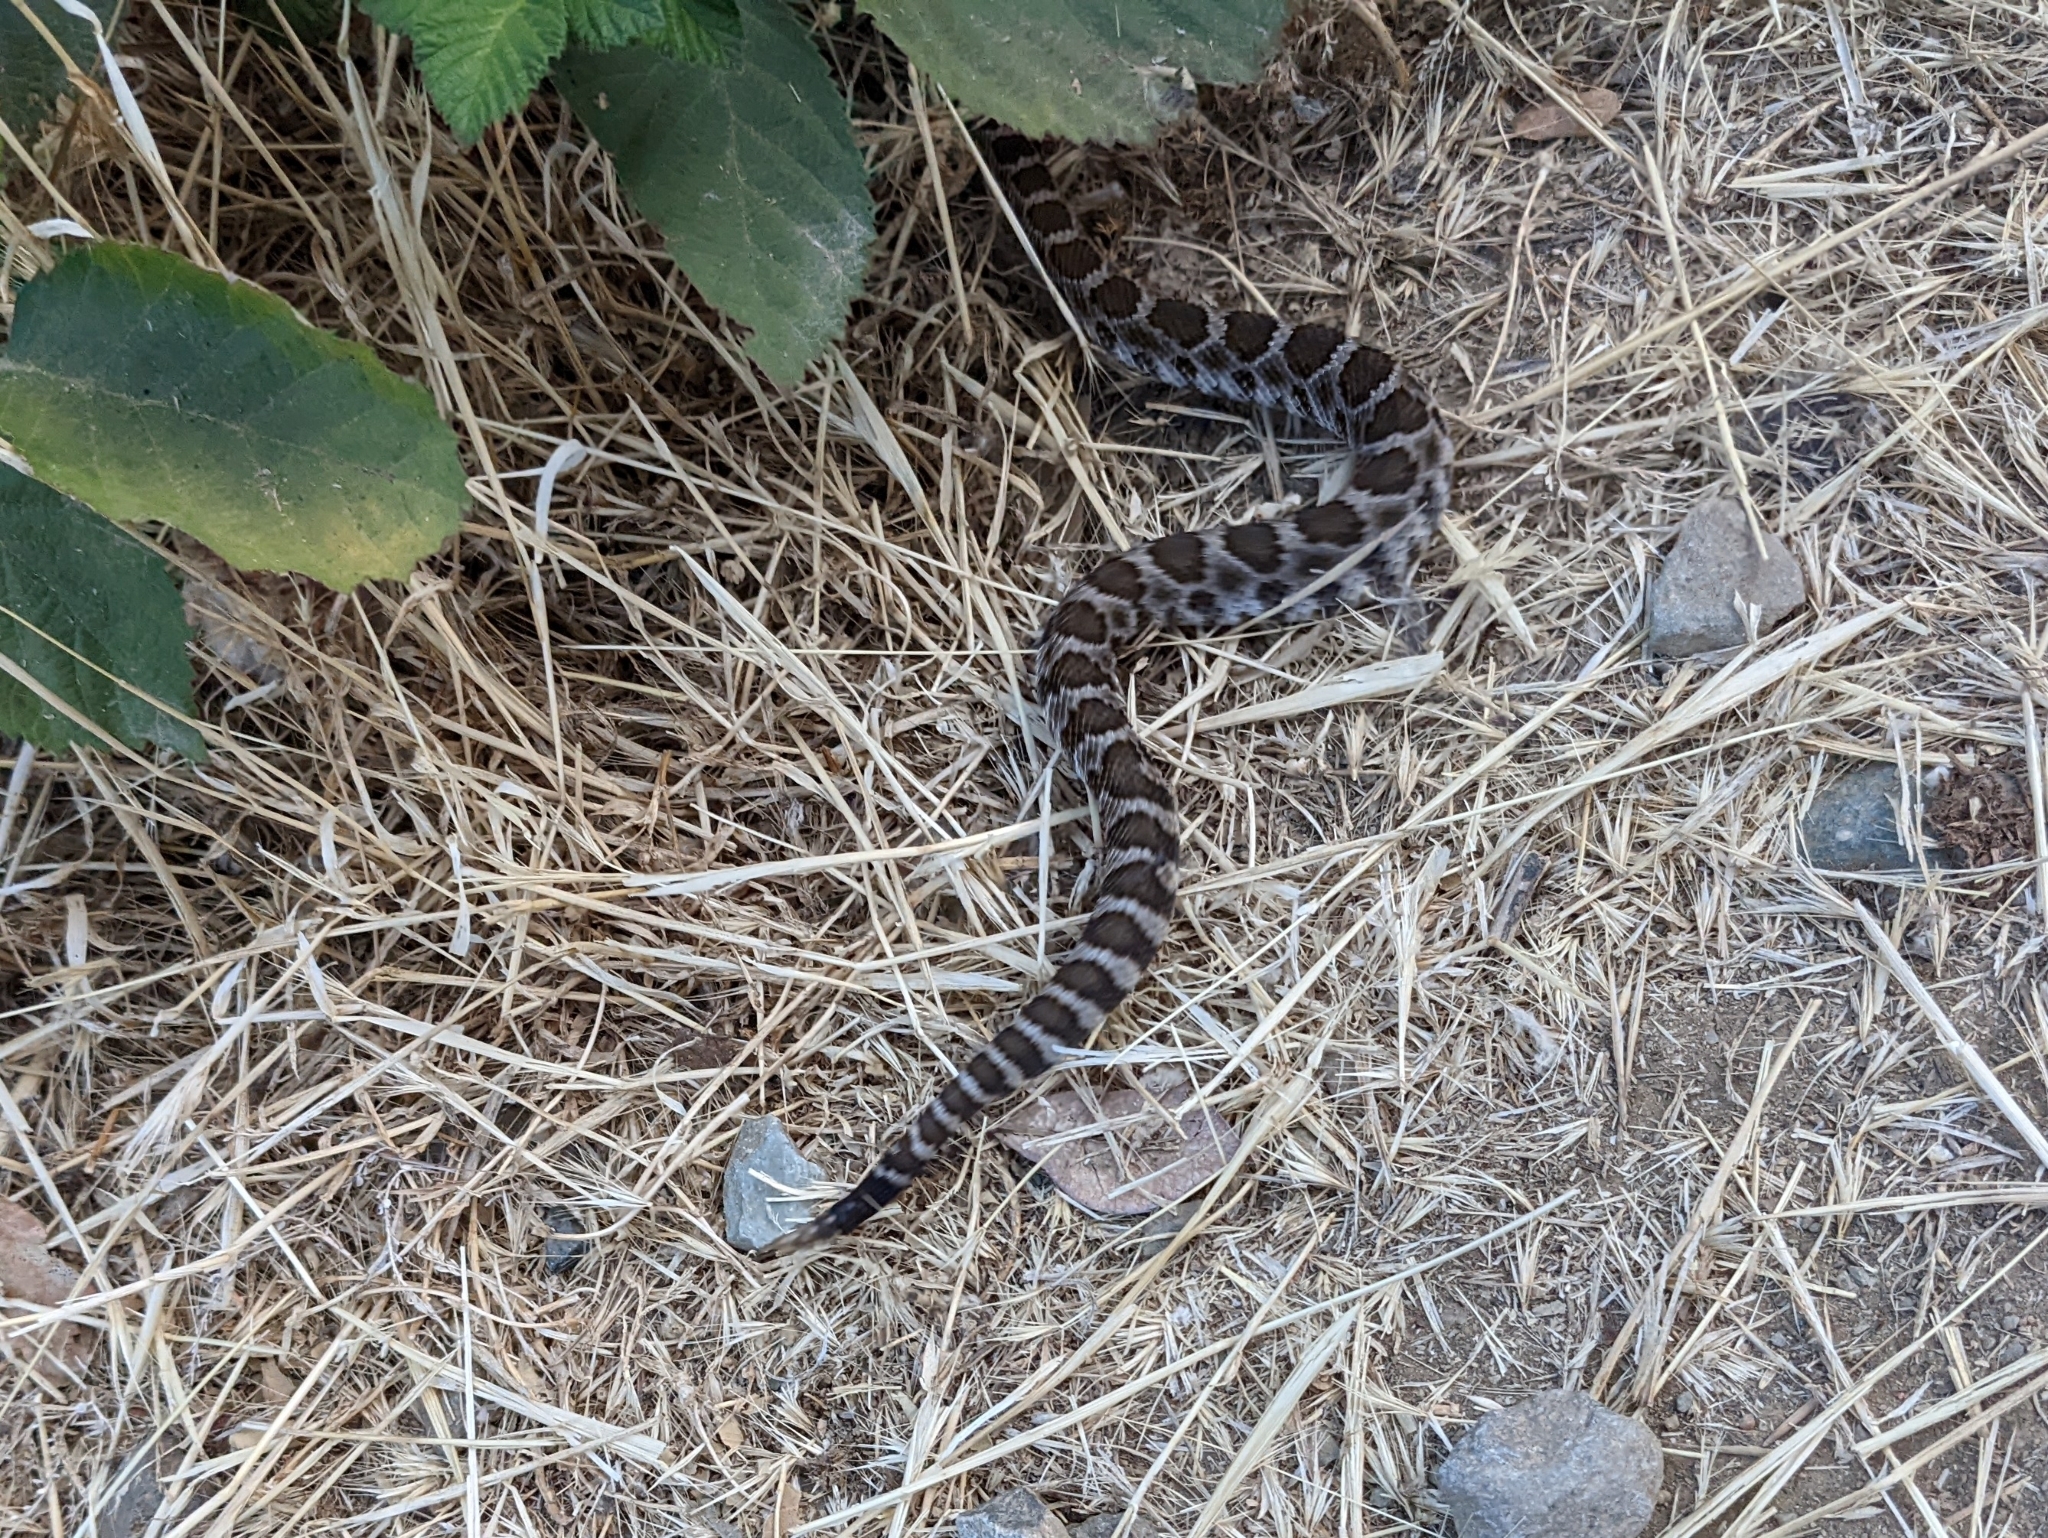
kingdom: Animalia
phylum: Chordata
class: Squamata
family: Viperidae
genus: Crotalus
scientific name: Crotalus oreganus
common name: Abyssus
